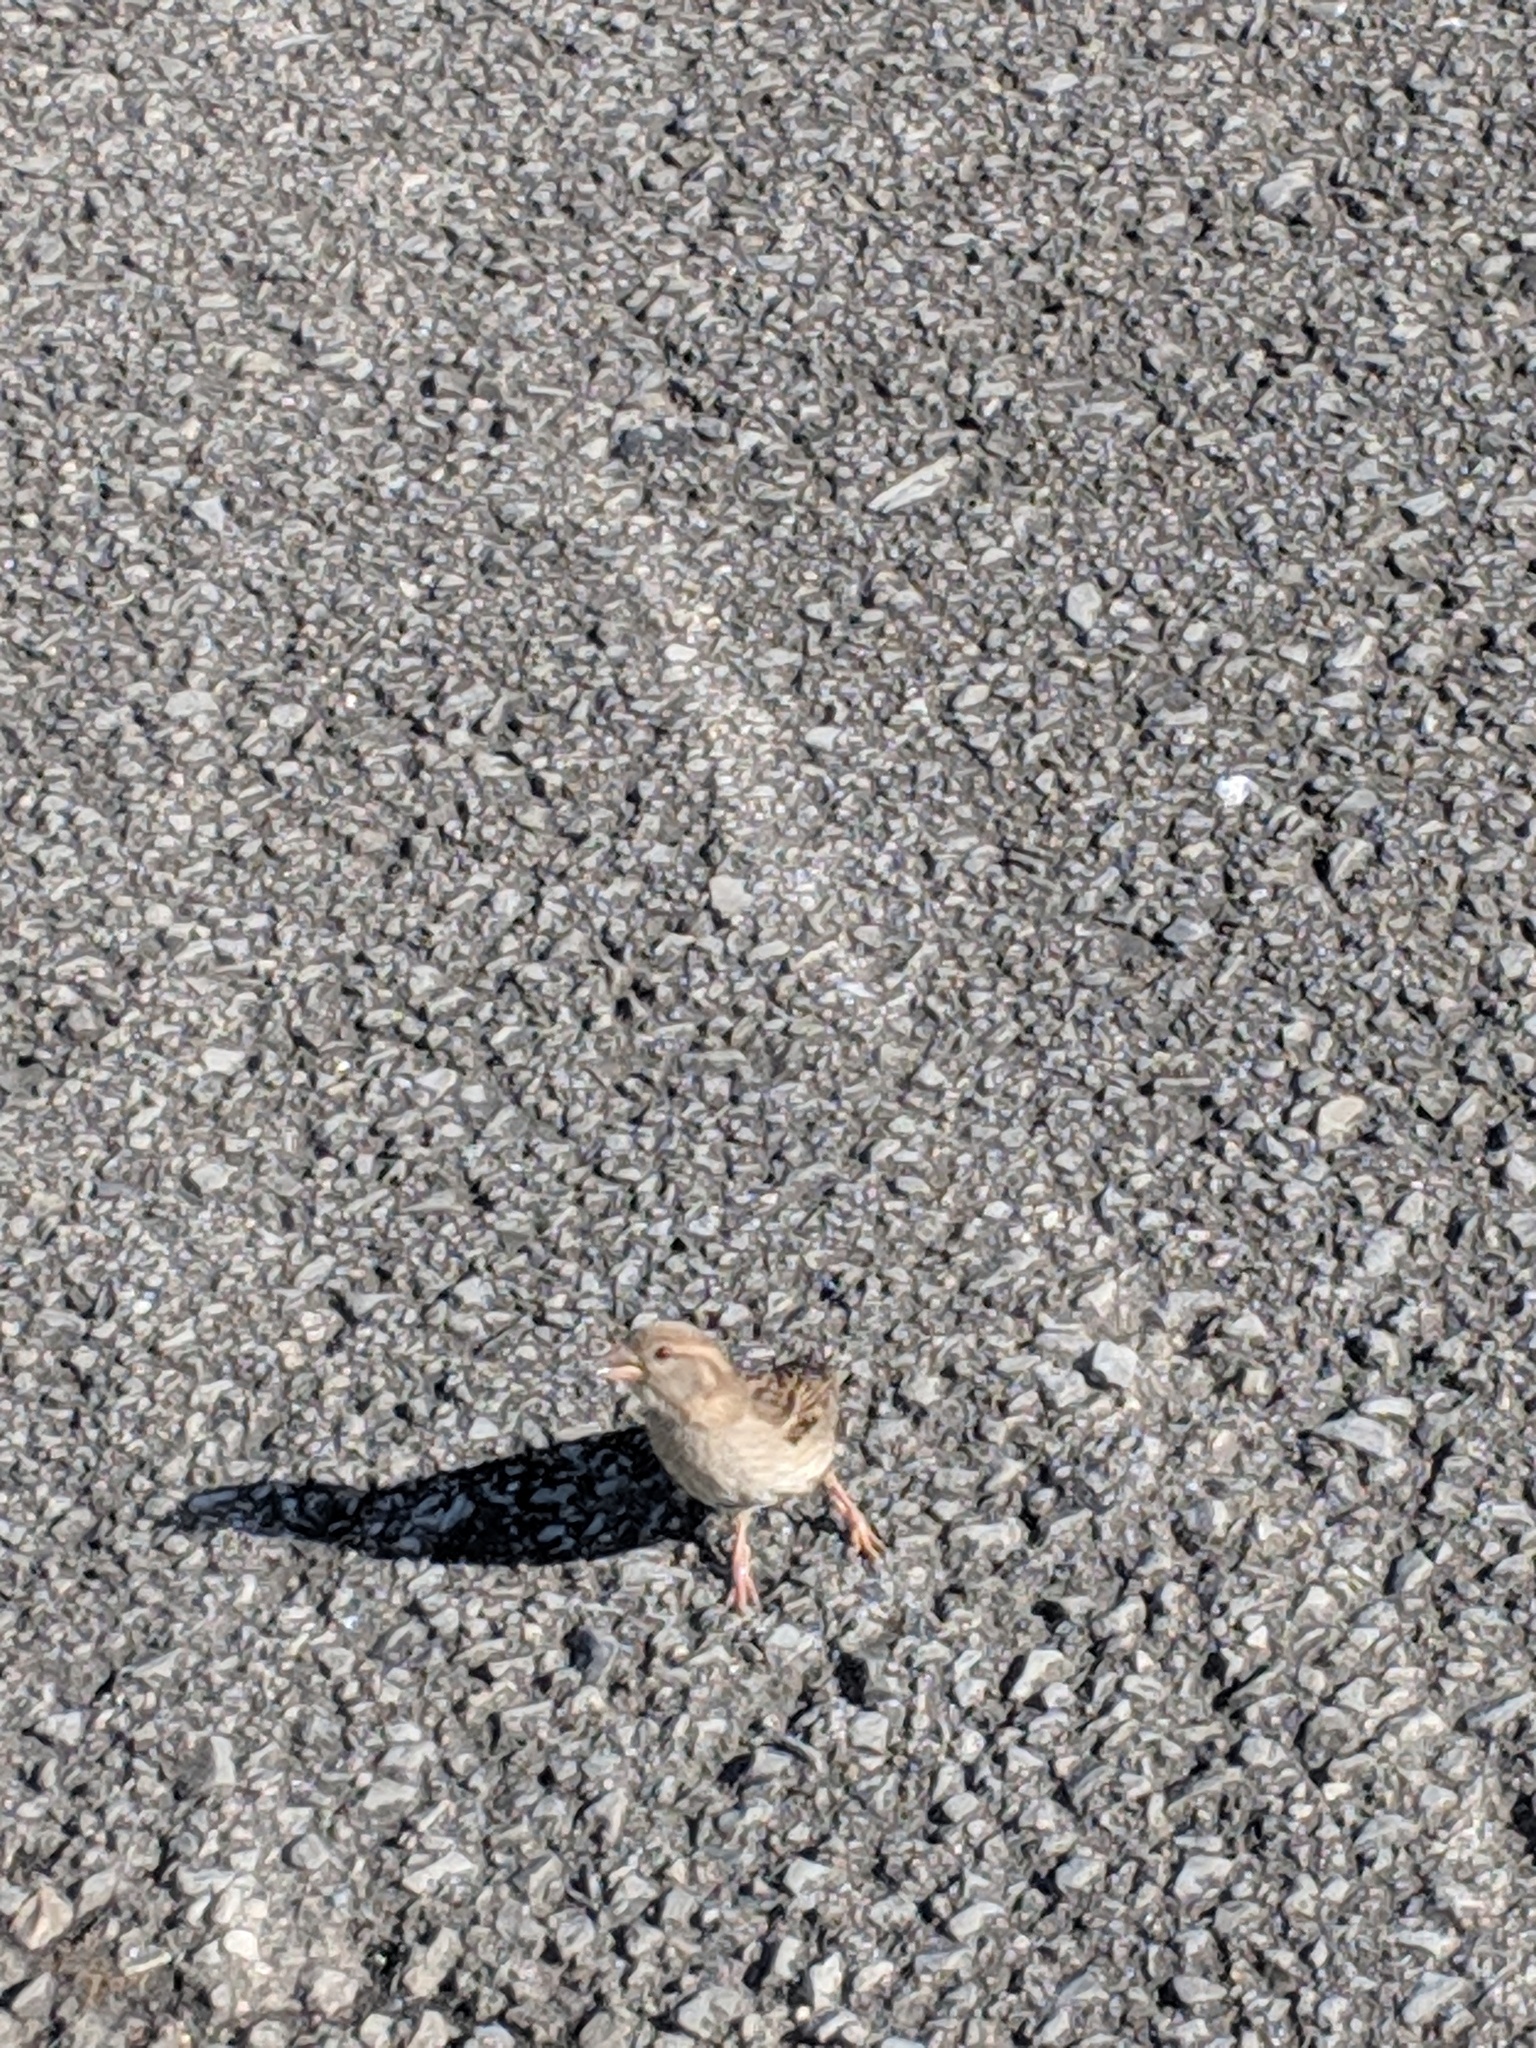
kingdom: Animalia
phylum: Chordata
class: Aves
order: Passeriformes
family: Passeridae
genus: Passer
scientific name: Passer domesticus
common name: House sparrow
